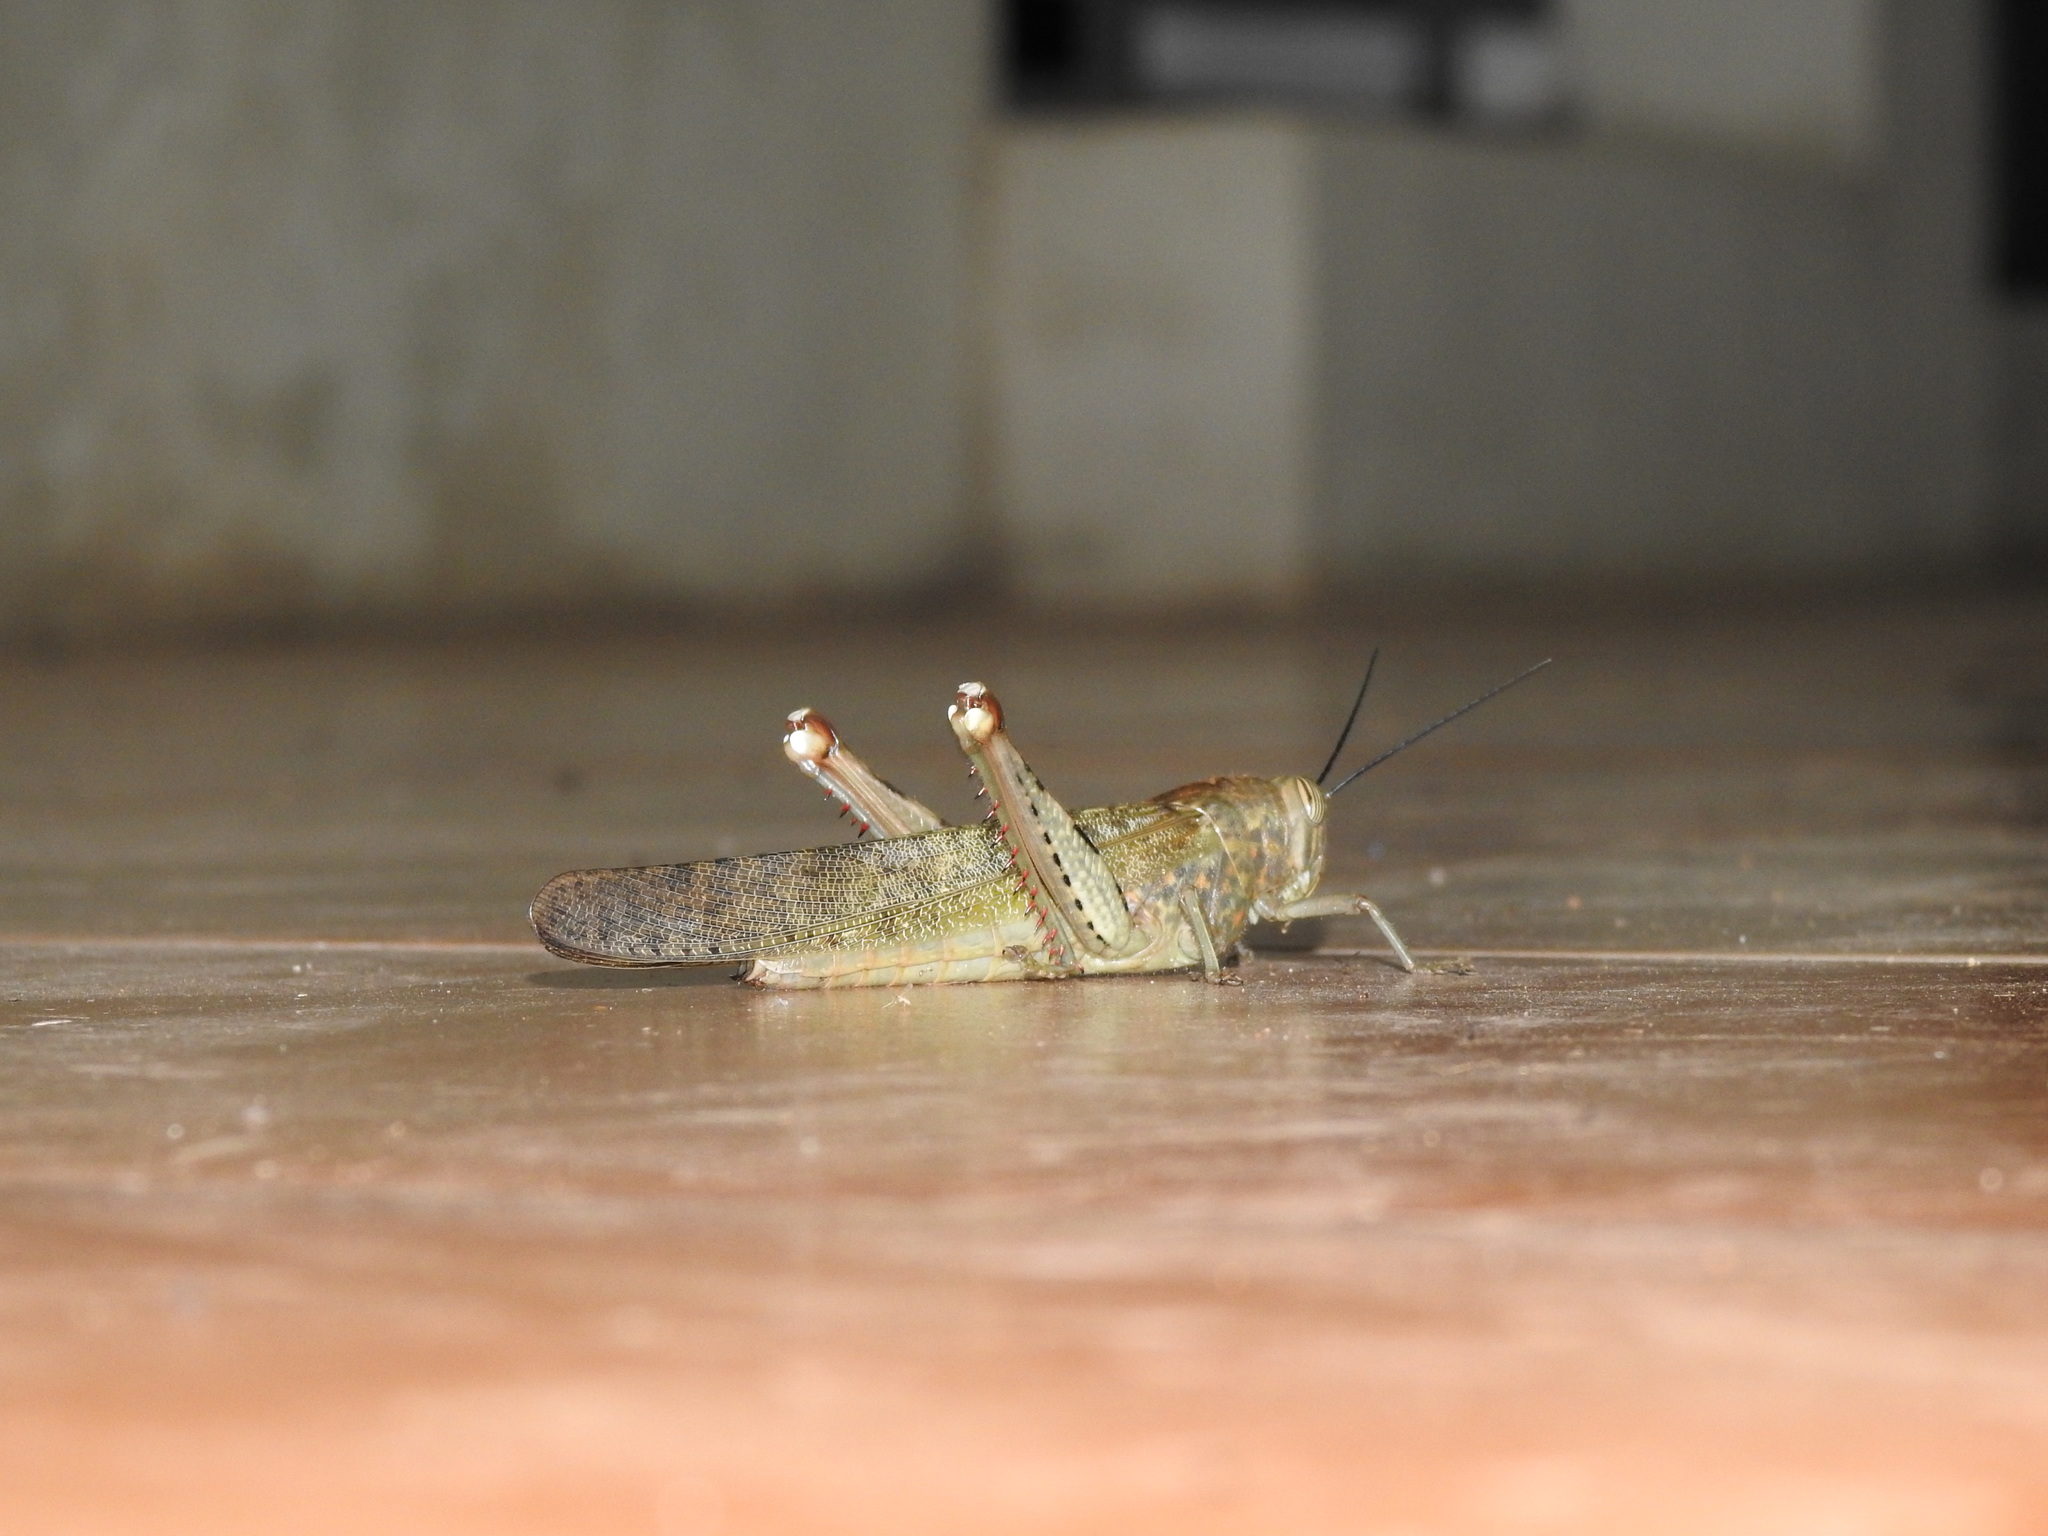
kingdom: Animalia
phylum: Arthropoda
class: Insecta
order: Orthoptera
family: Acrididae
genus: Anacridium
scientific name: Anacridium flavescens
